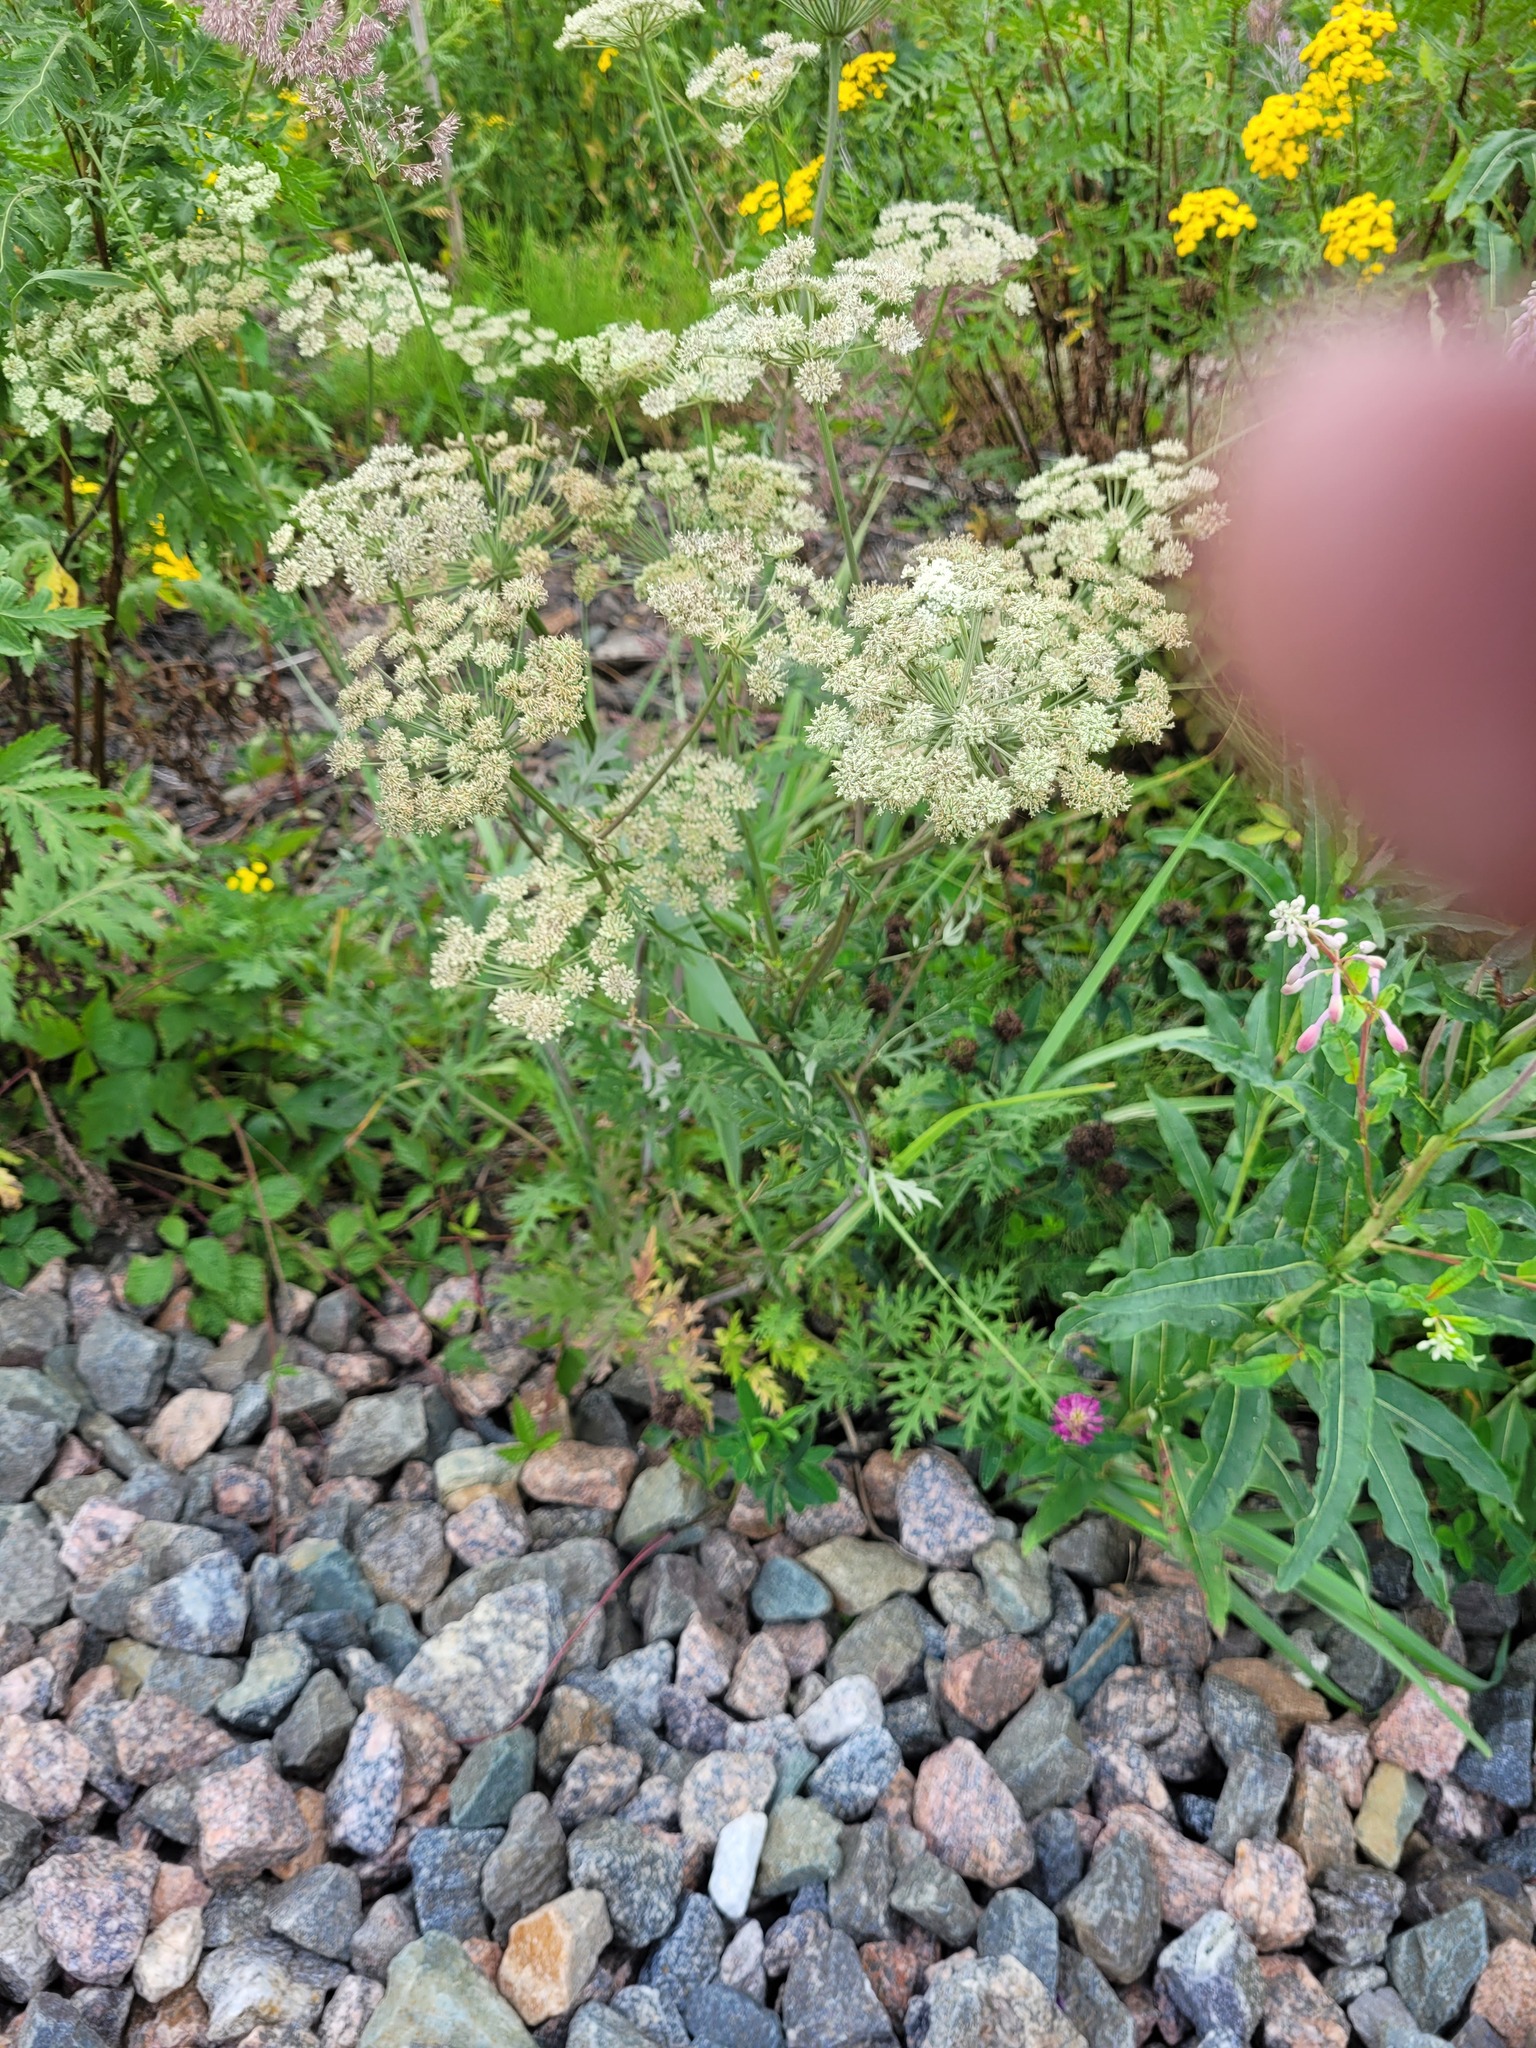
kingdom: Plantae
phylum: Tracheophyta
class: Magnoliopsida
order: Apiales
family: Apiaceae
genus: Seseli
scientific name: Seseli libanotis
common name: Mooncarrot
